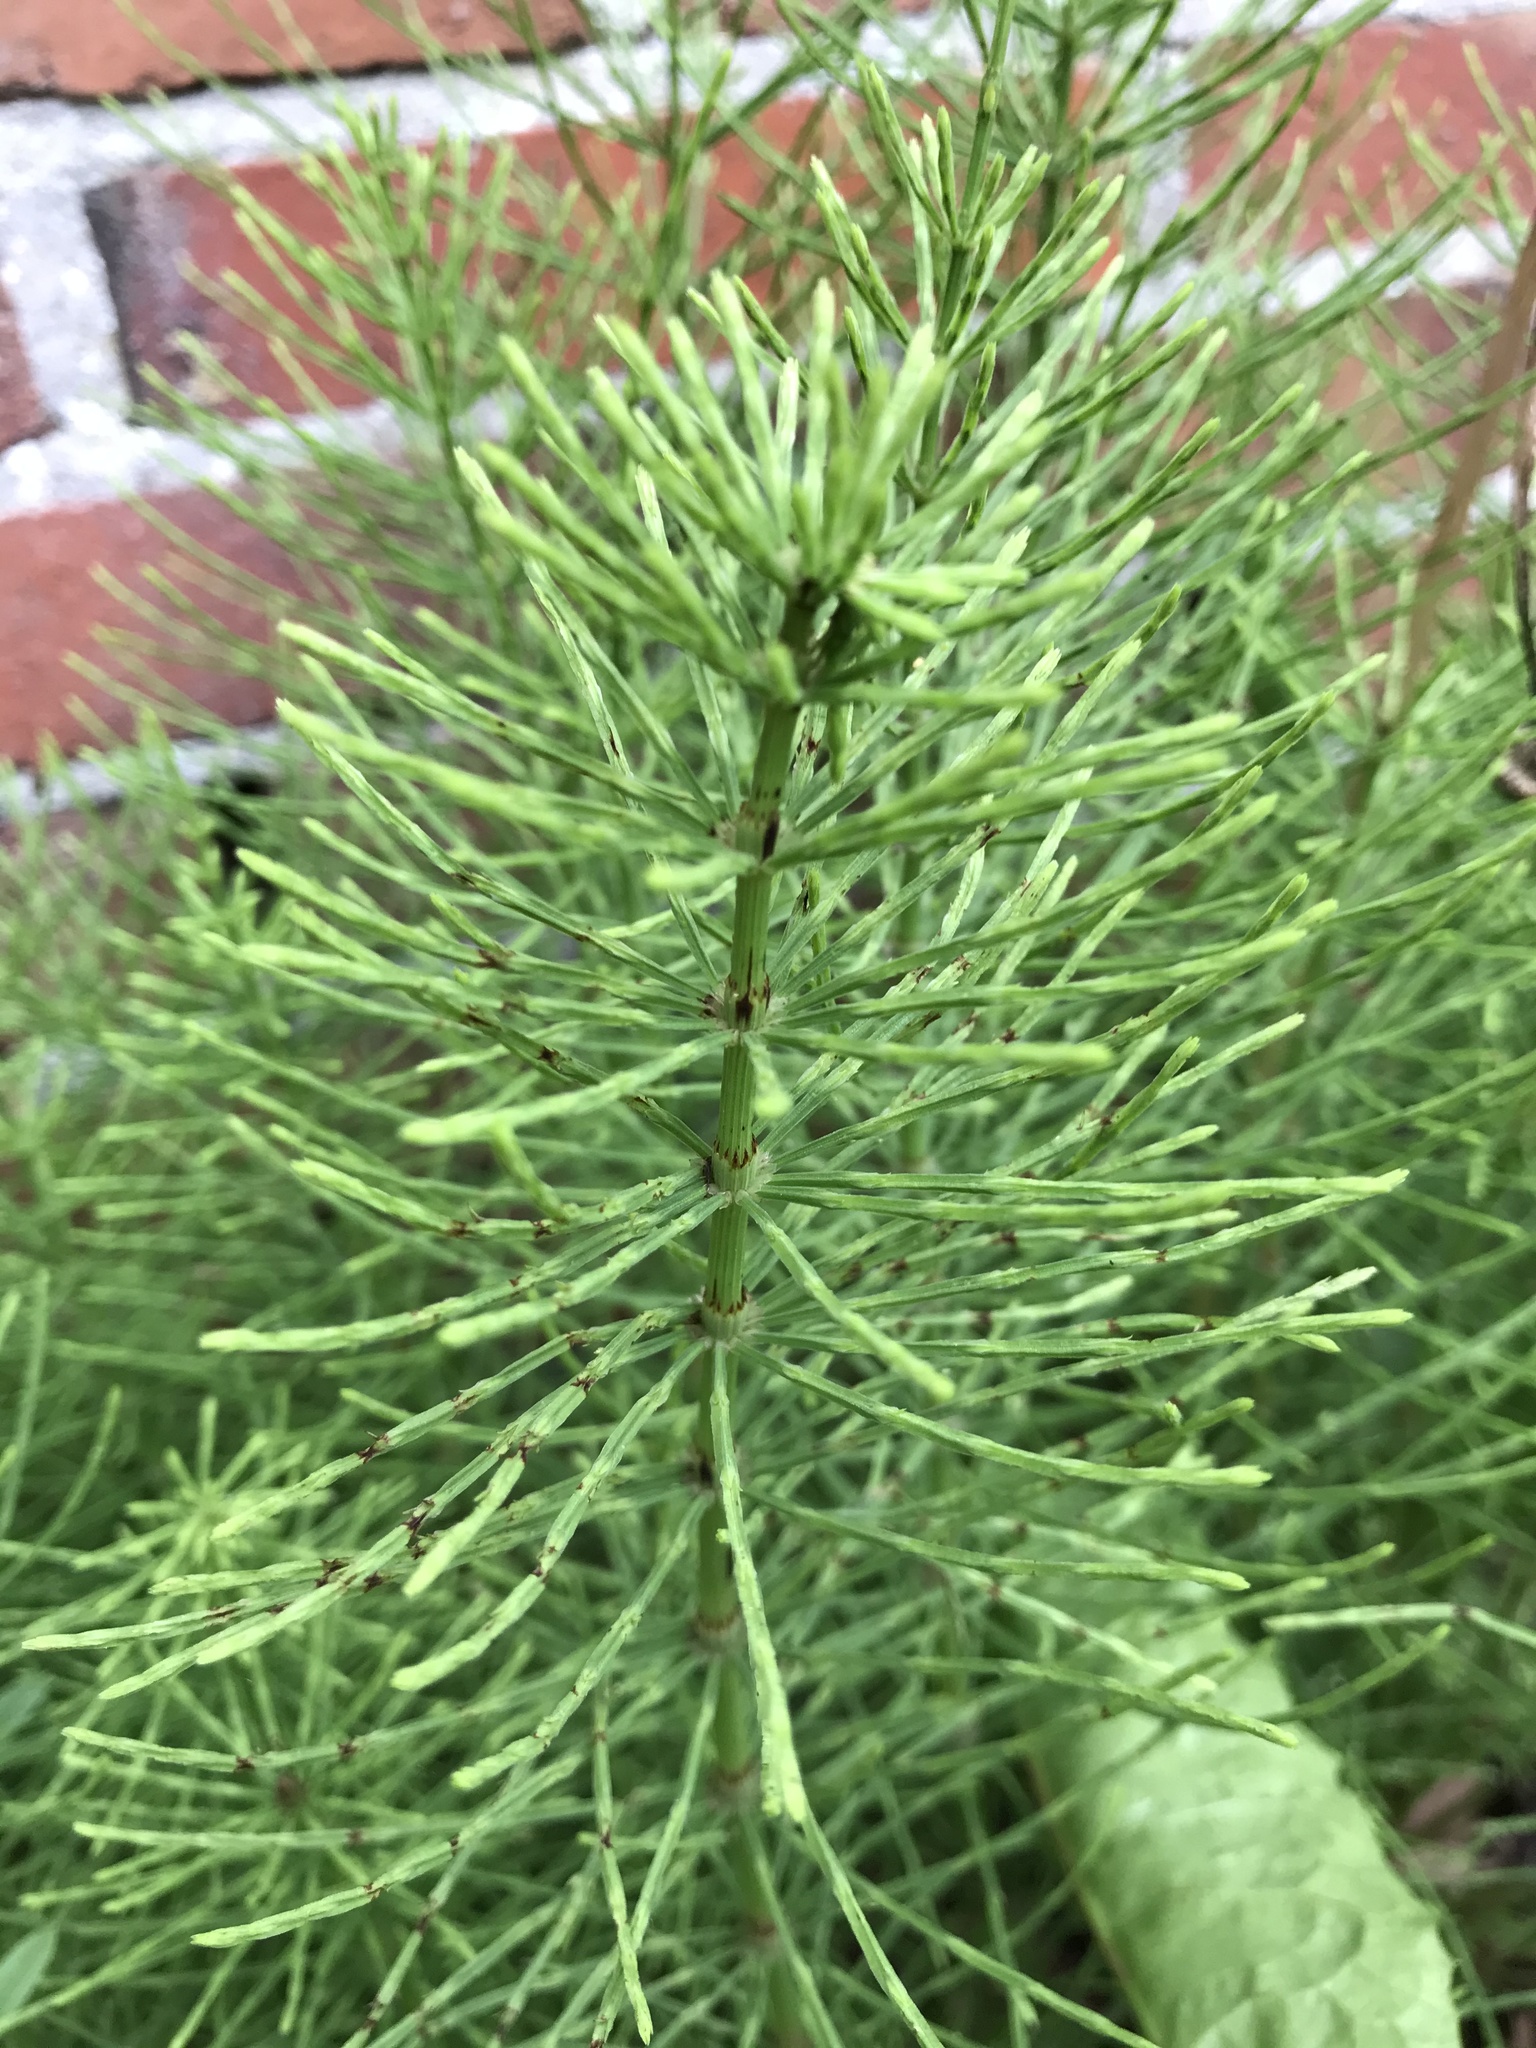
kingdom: Plantae
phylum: Tracheophyta
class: Polypodiopsida
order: Equisetales
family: Equisetaceae
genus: Equisetum
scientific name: Equisetum arvense
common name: Field horsetail
